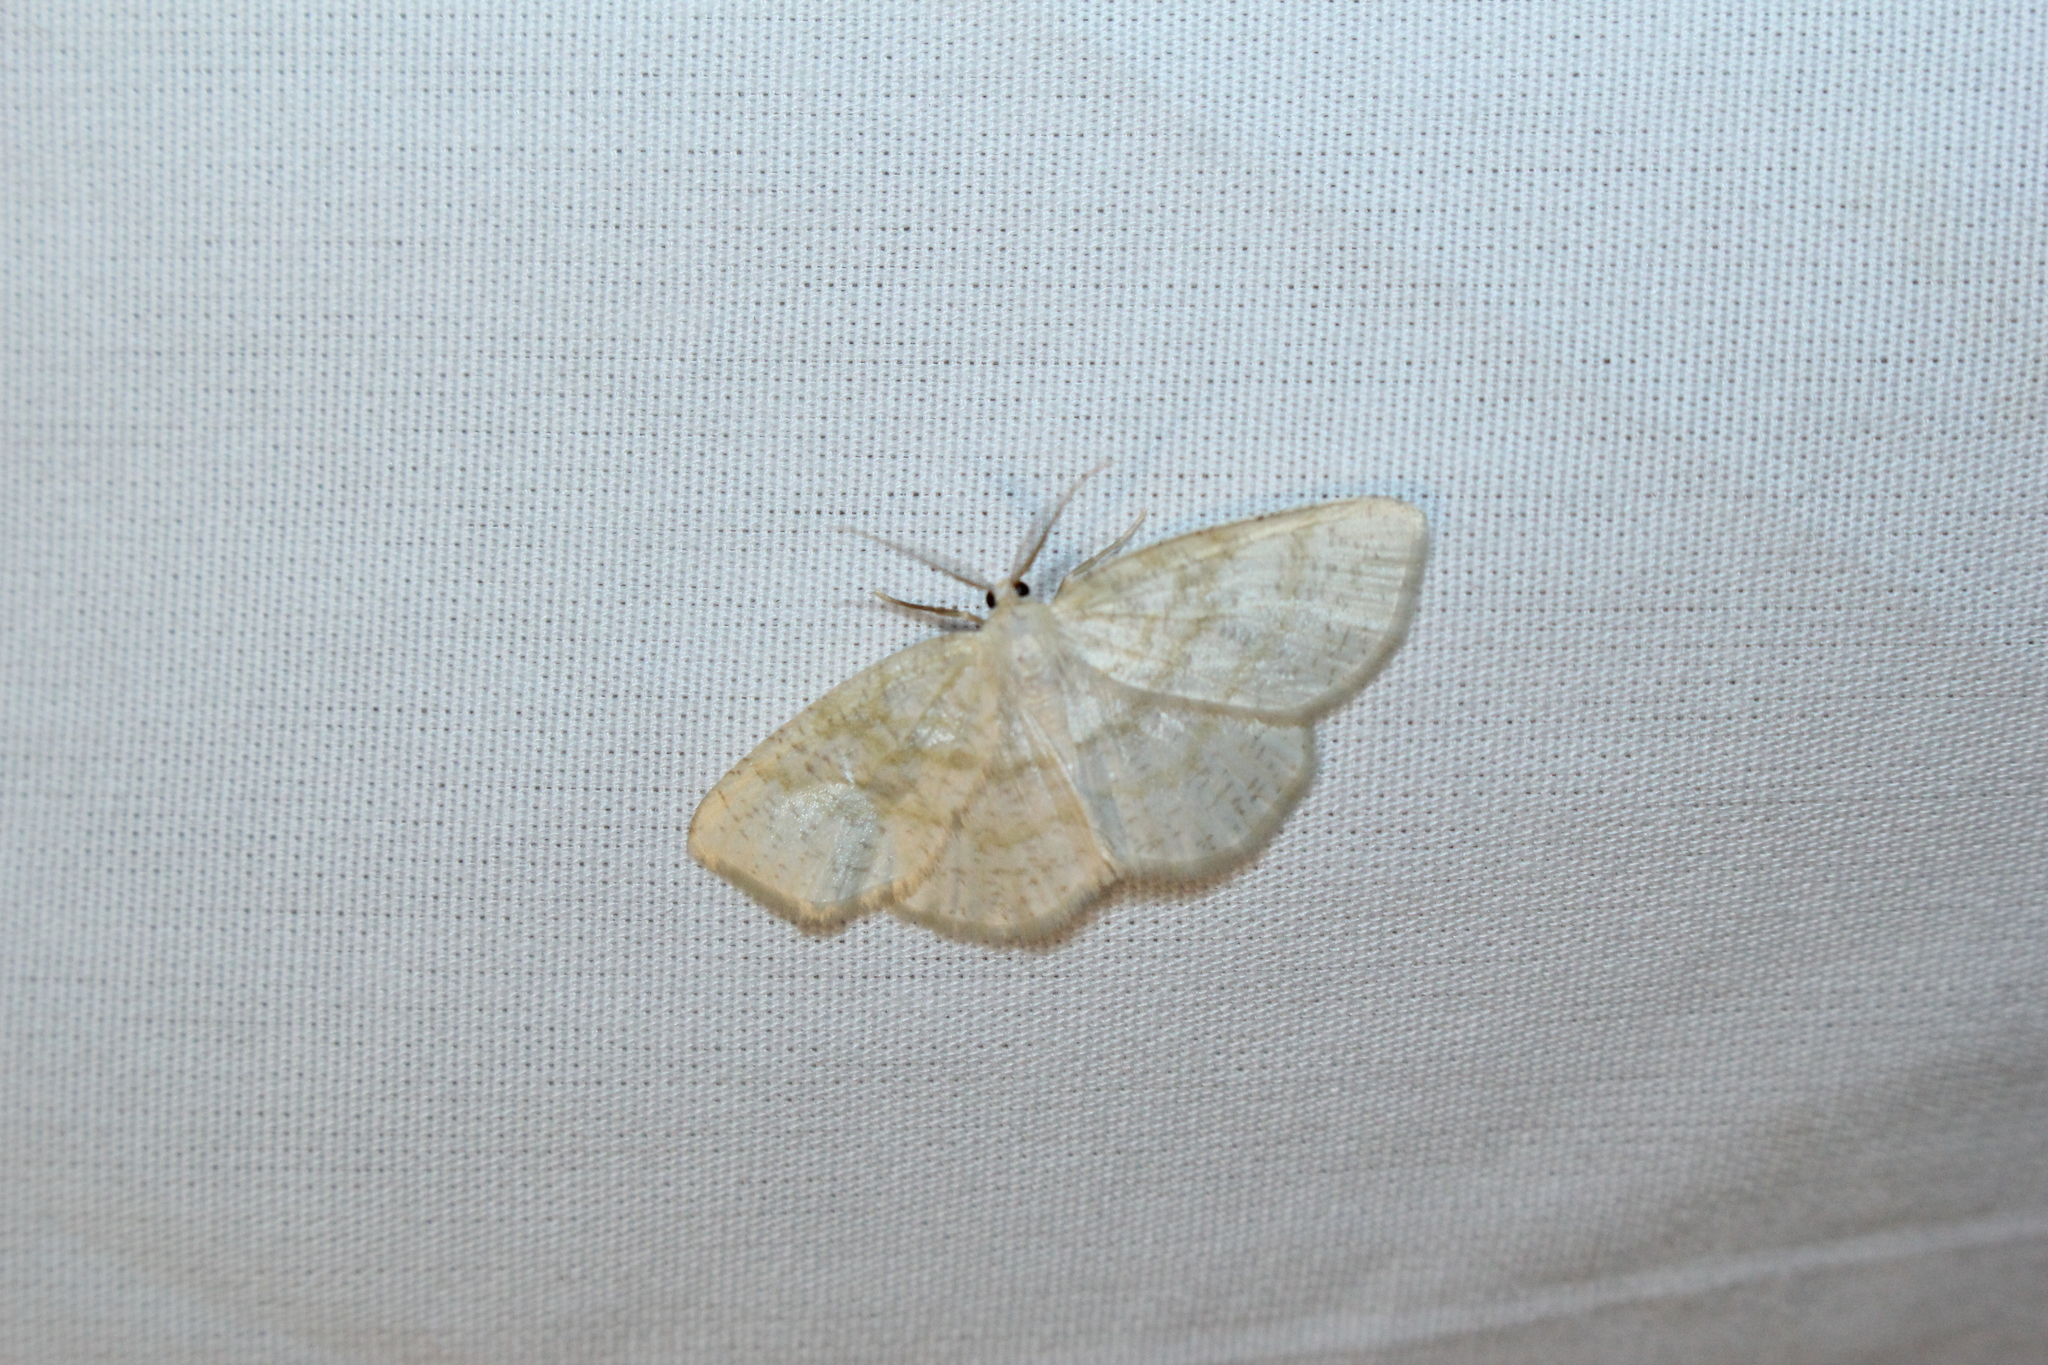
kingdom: Animalia
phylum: Arthropoda
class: Insecta
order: Lepidoptera
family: Geometridae
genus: Cabera
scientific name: Cabera erythemaria
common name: Yellow-dusted cream moth
